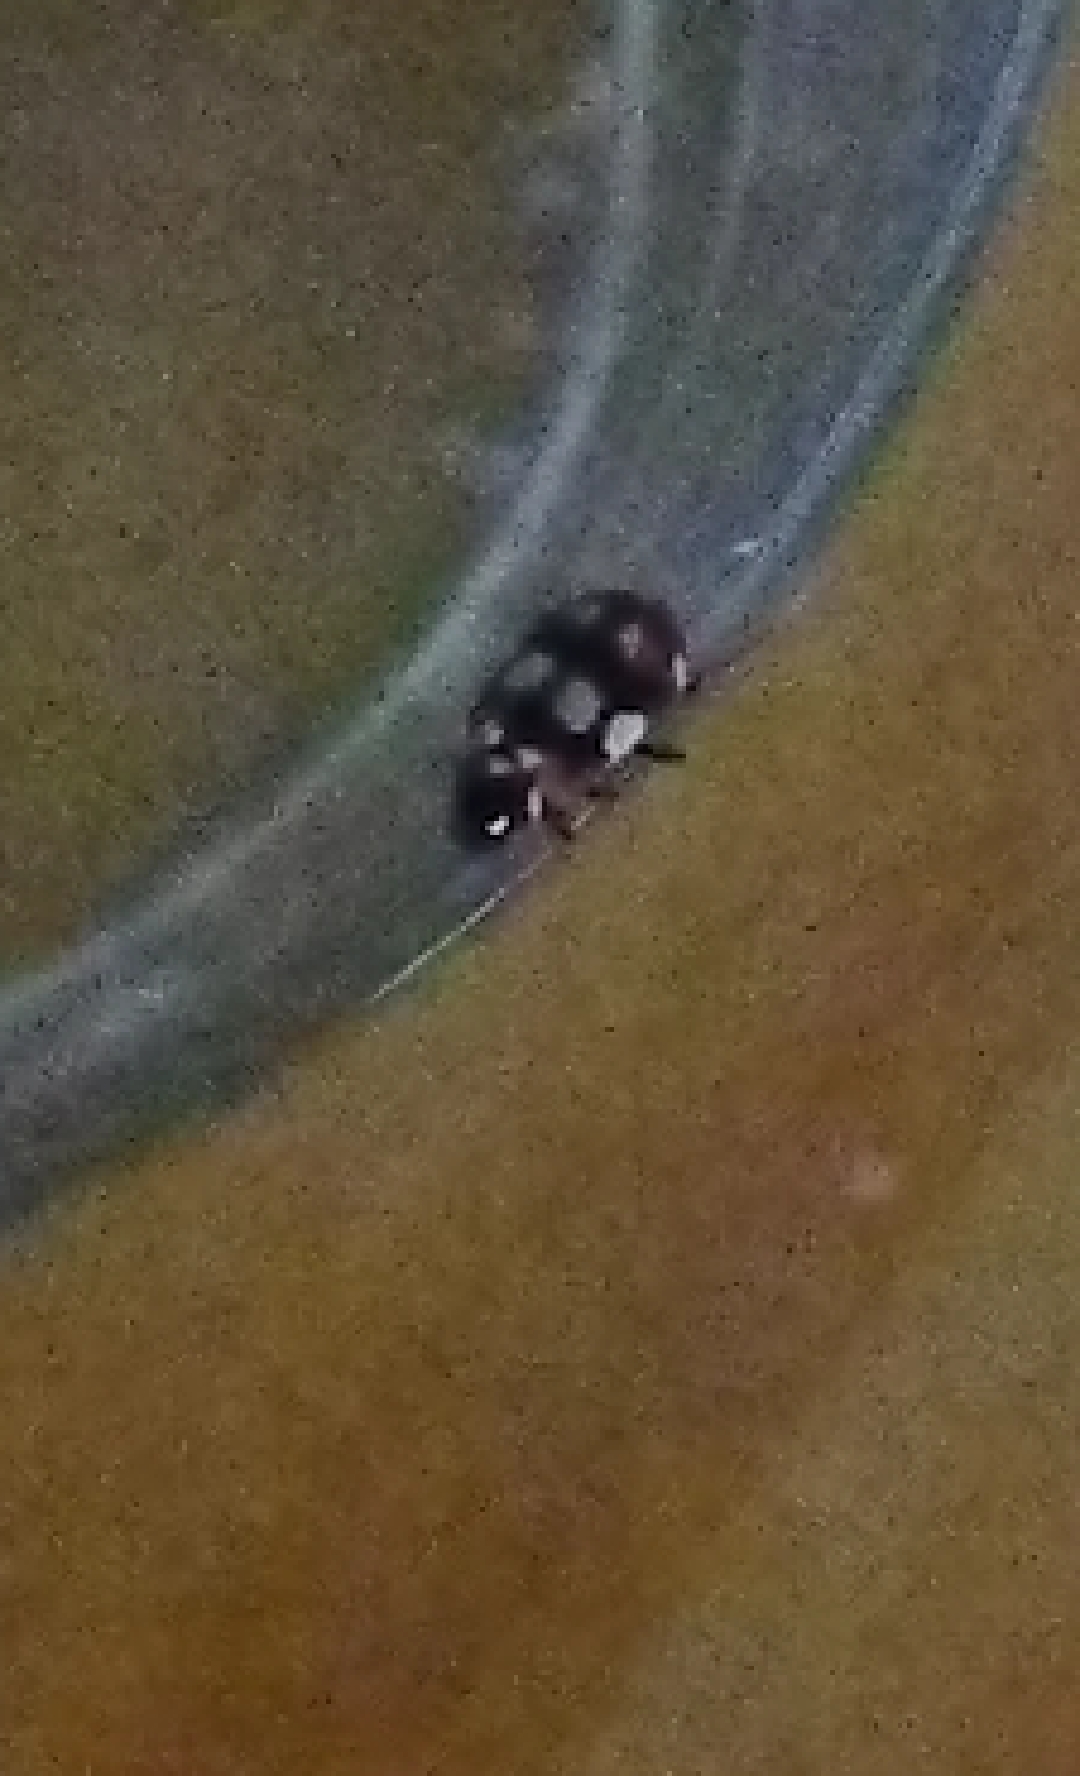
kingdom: Animalia
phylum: Arthropoda
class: Insecta
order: Coleoptera
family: Coccinellidae
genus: Eriopis
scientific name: Eriopis connexa
